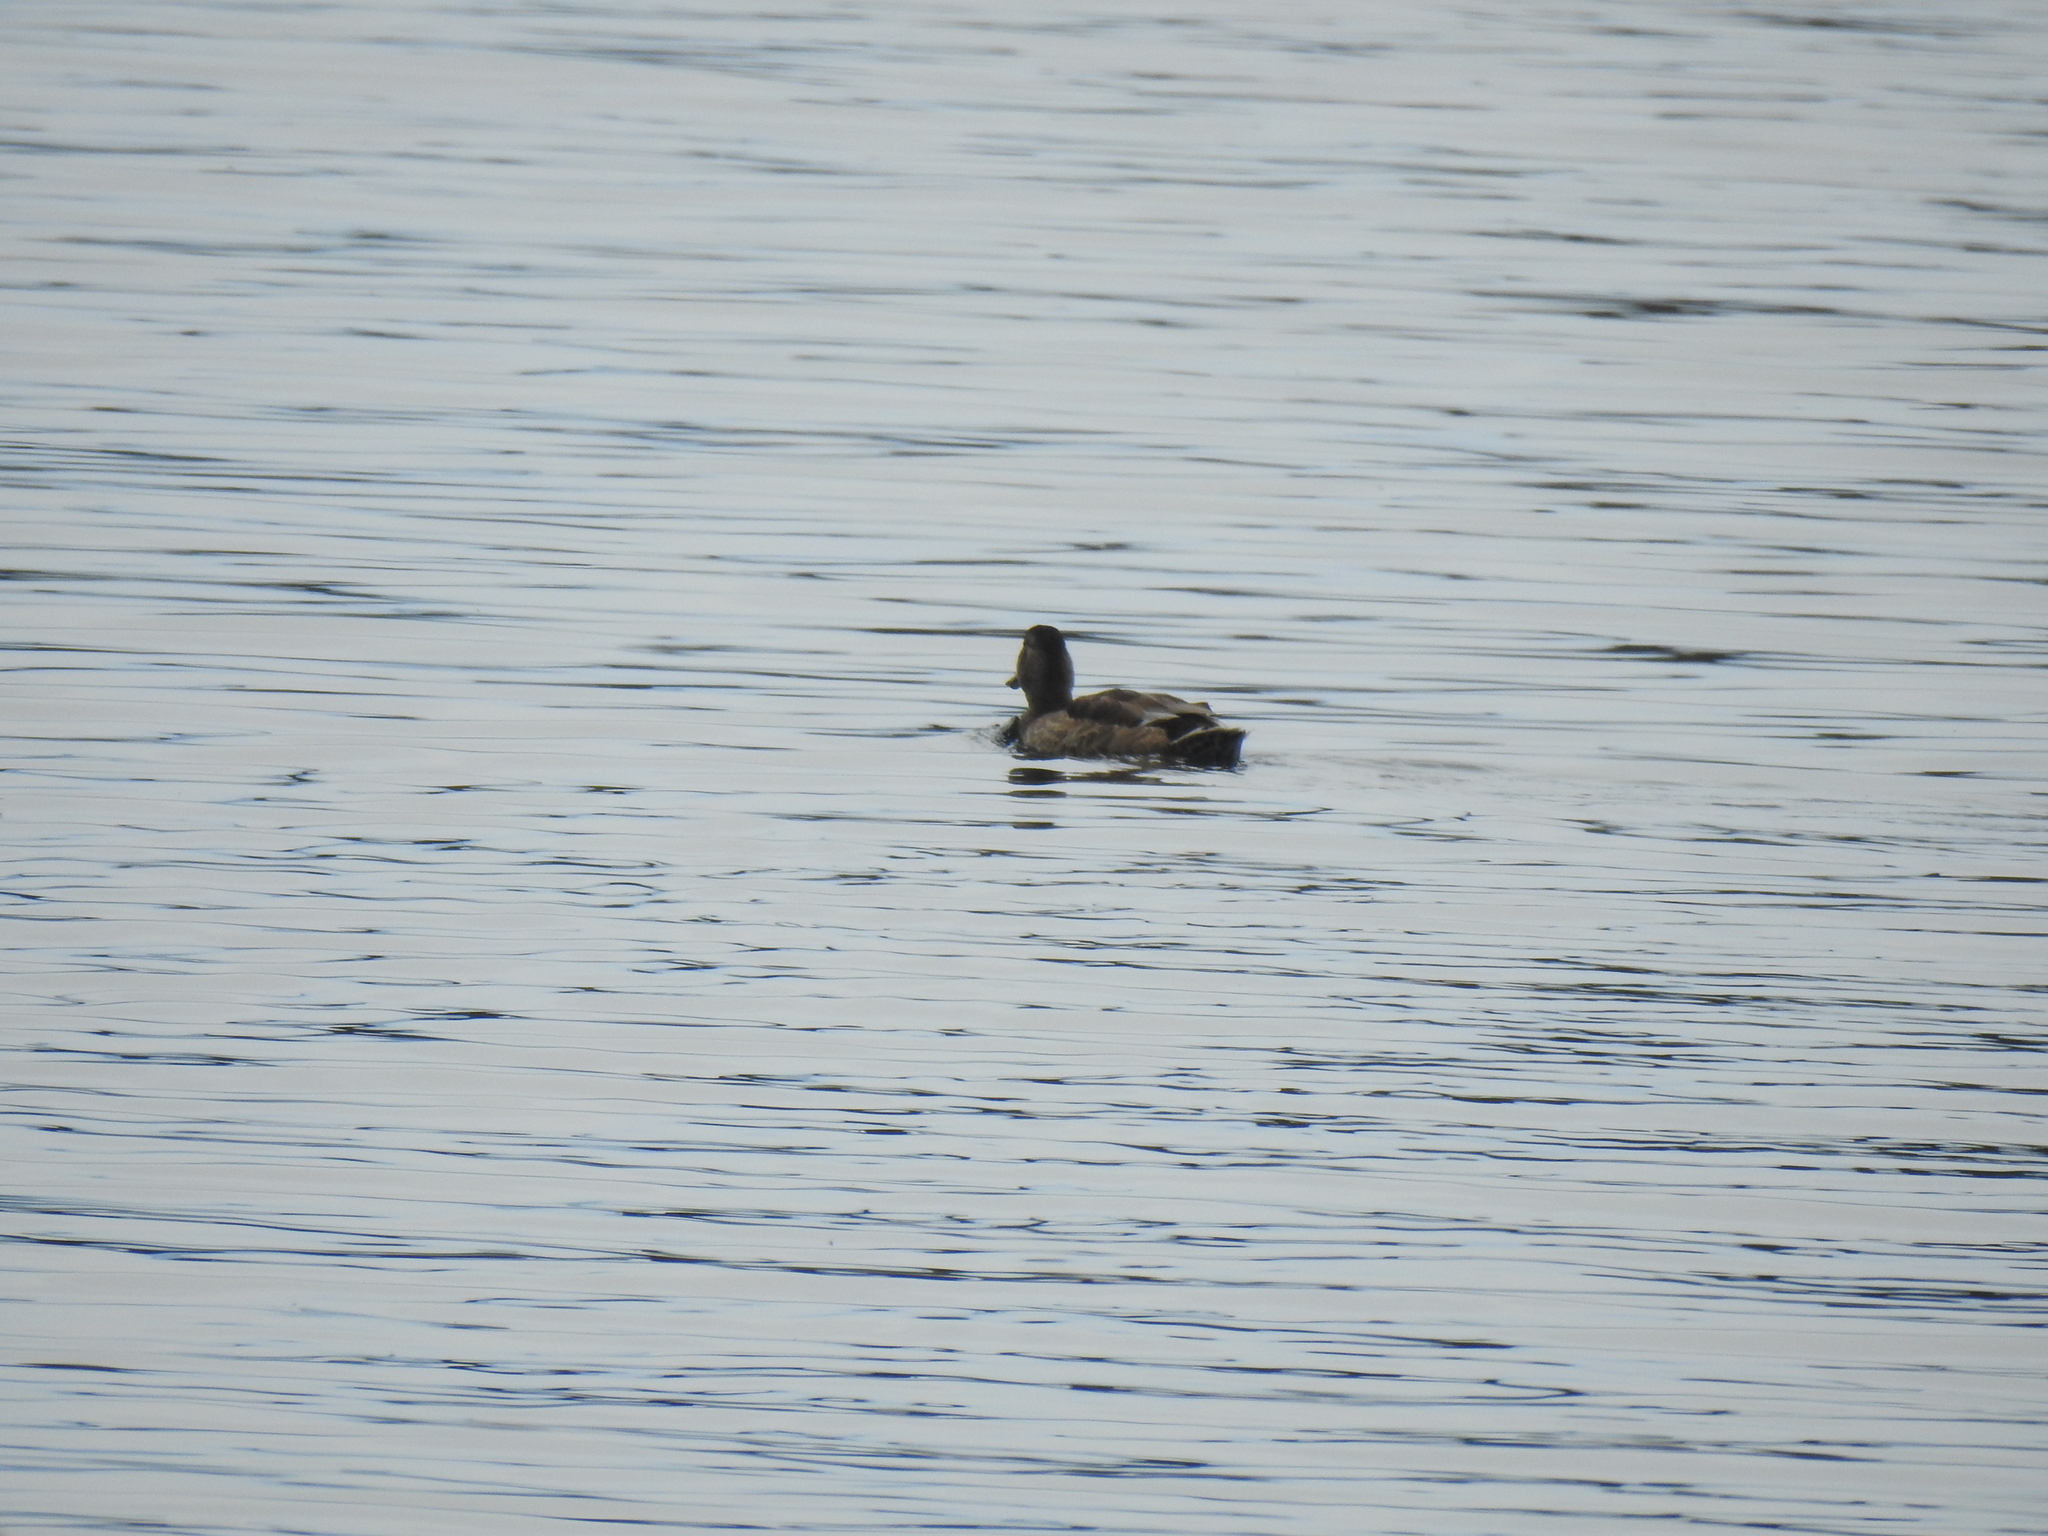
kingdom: Animalia
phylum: Chordata
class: Aves
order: Anseriformes
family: Anatidae
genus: Anas
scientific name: Anas platyrhynchos
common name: Mallard
